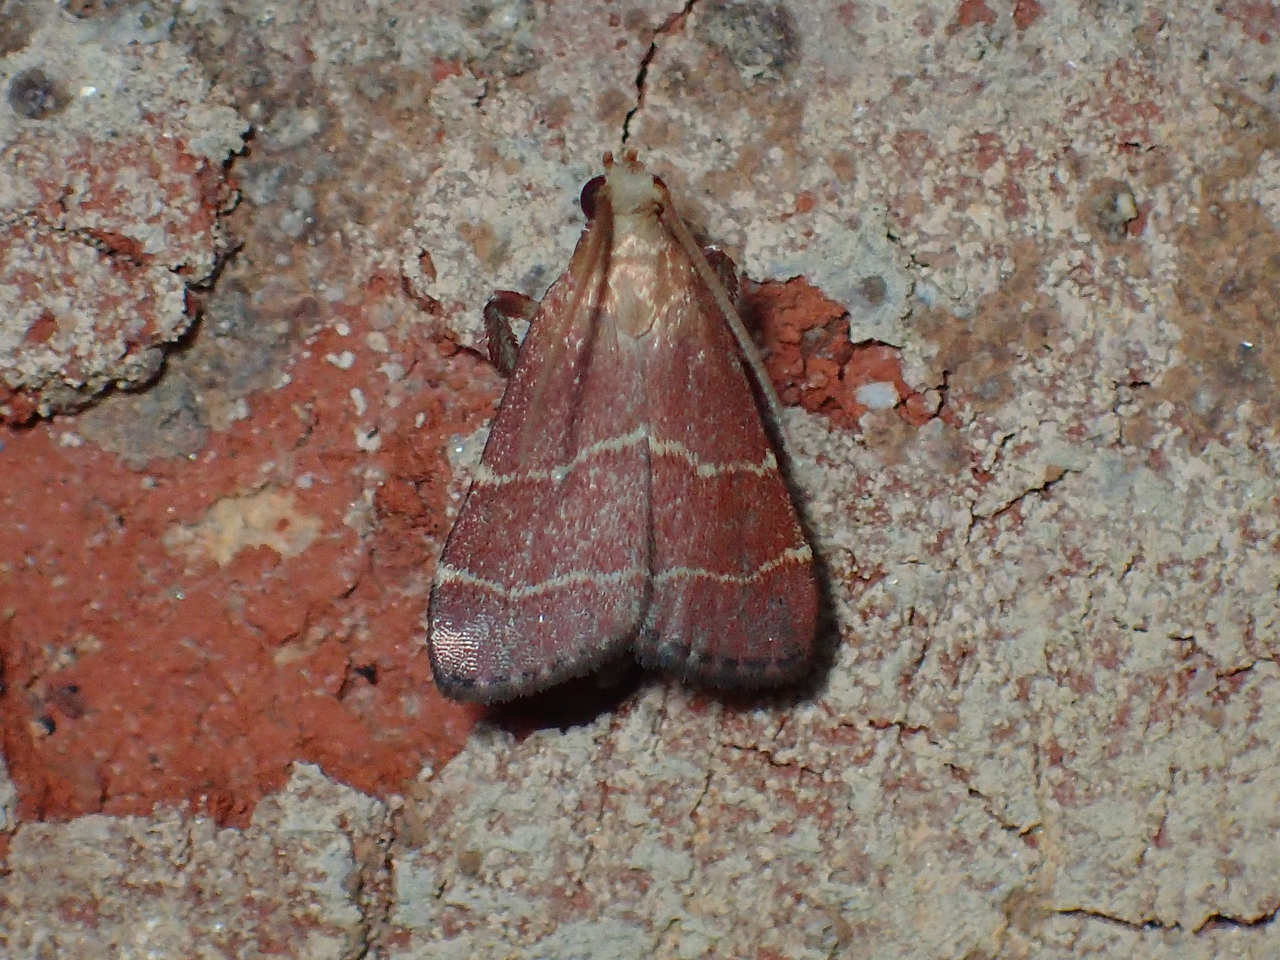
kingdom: Animalia
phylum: Arthropoda
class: Insecta
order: Lepidoptera
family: Pyralidae
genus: Arta
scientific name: Arta statalis
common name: Posturing arta moth
